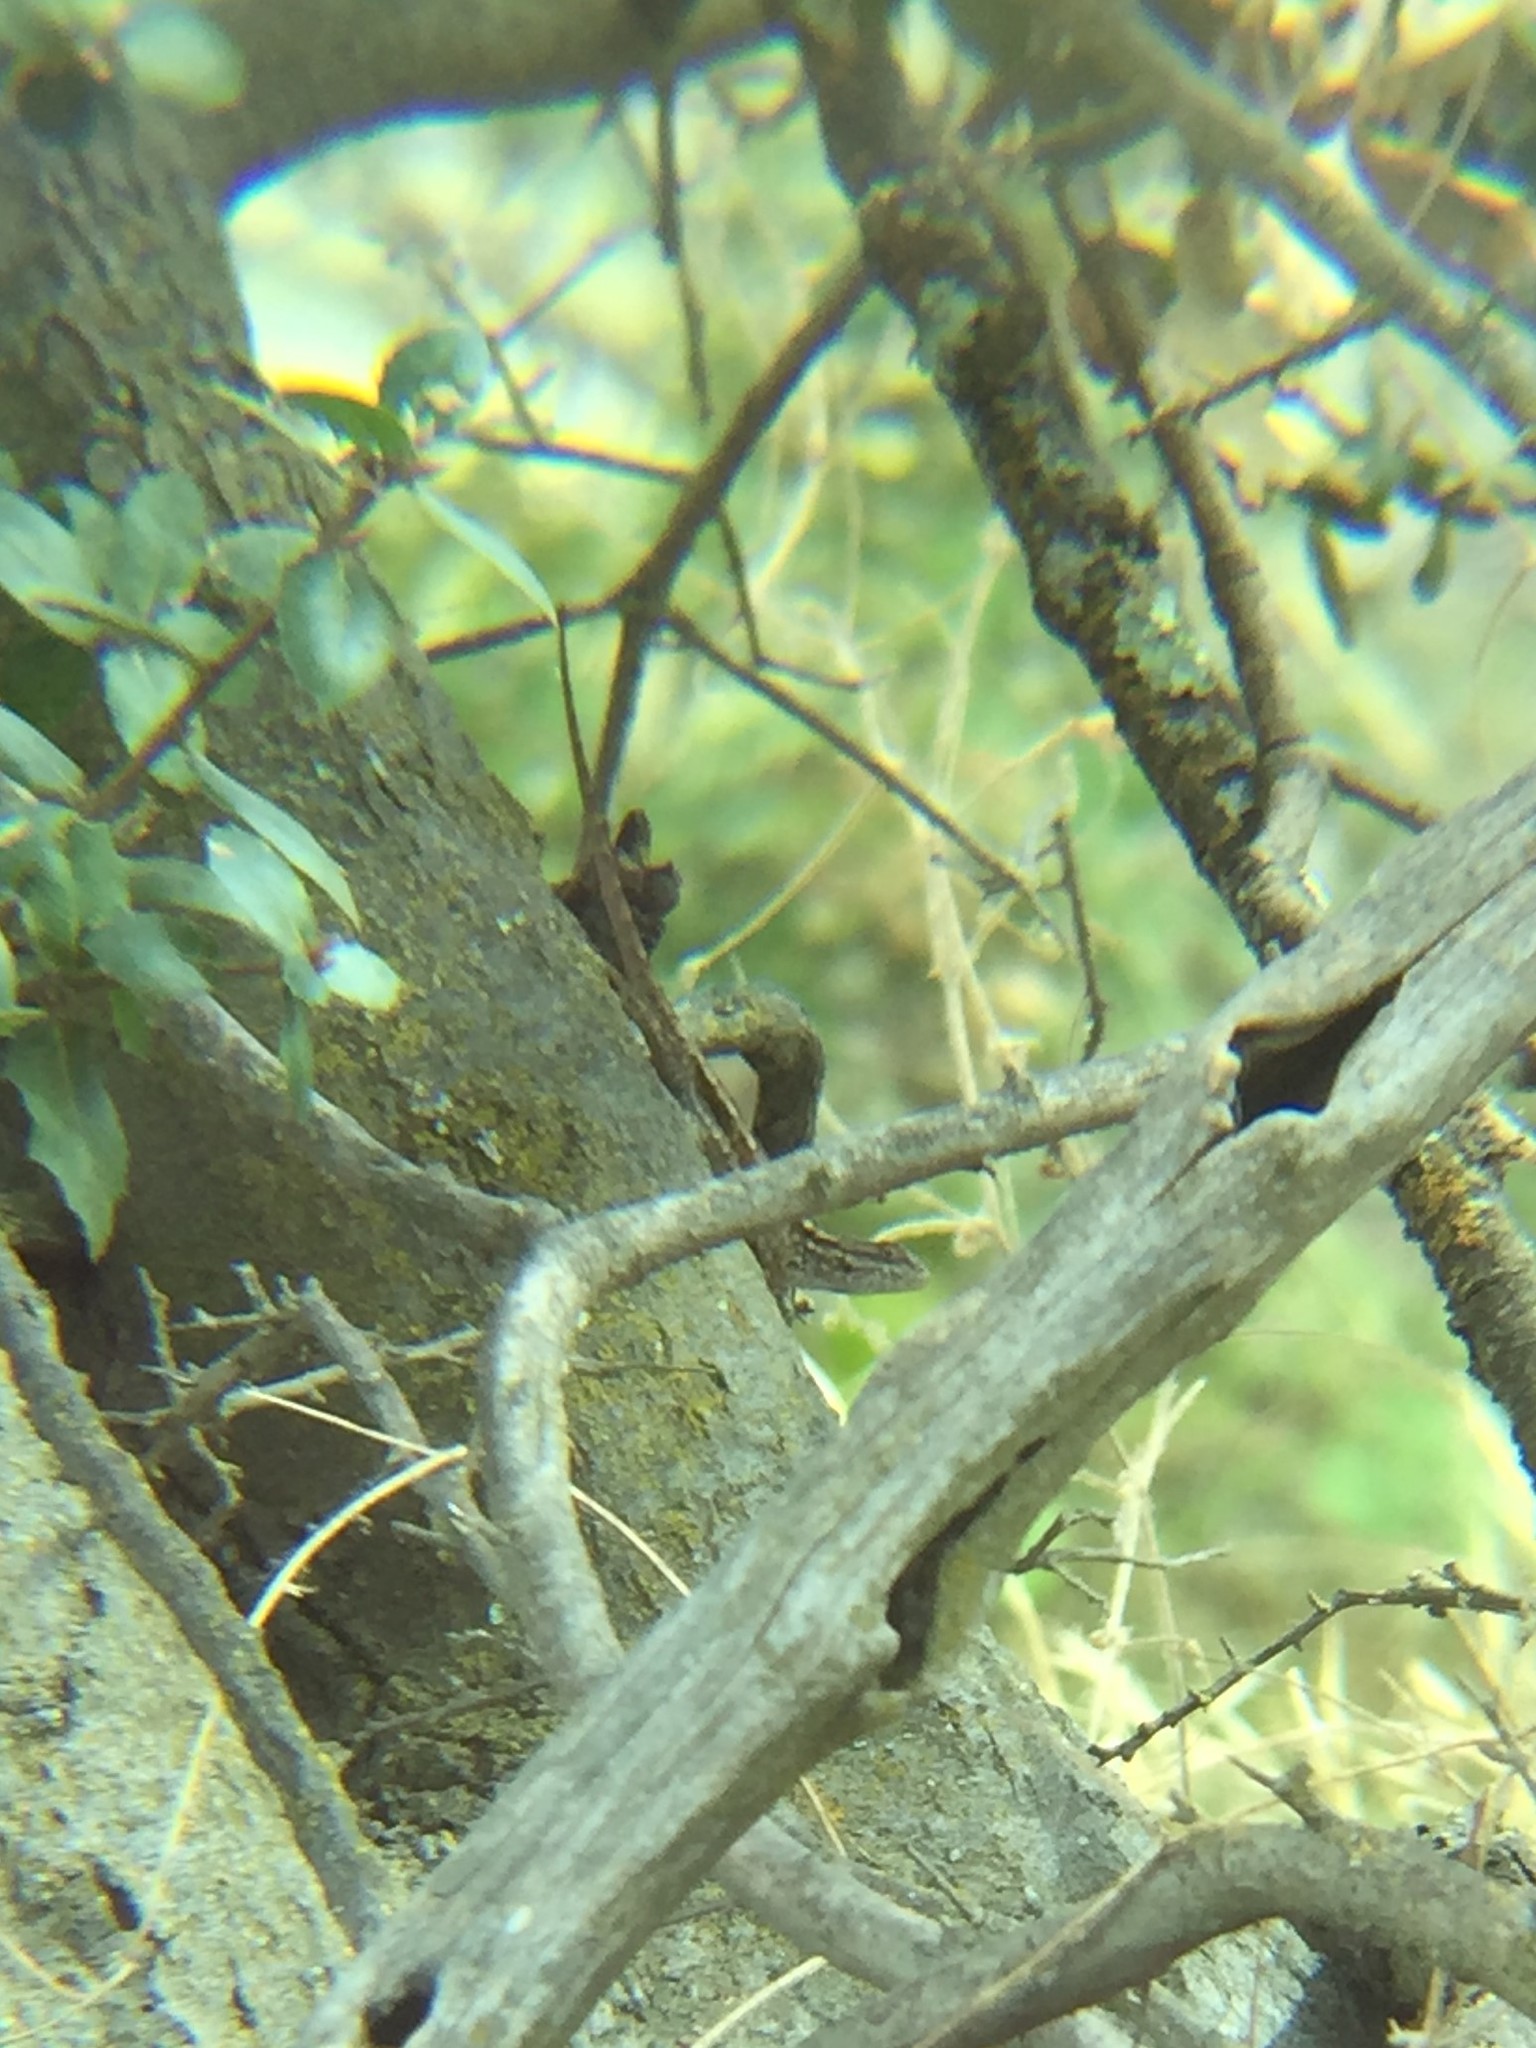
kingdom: Animalia
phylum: Chordata
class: Squamata
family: Phrynosomatidae
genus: Sceloporus
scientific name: Sceloporus occidentalis
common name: Western fence lizard
